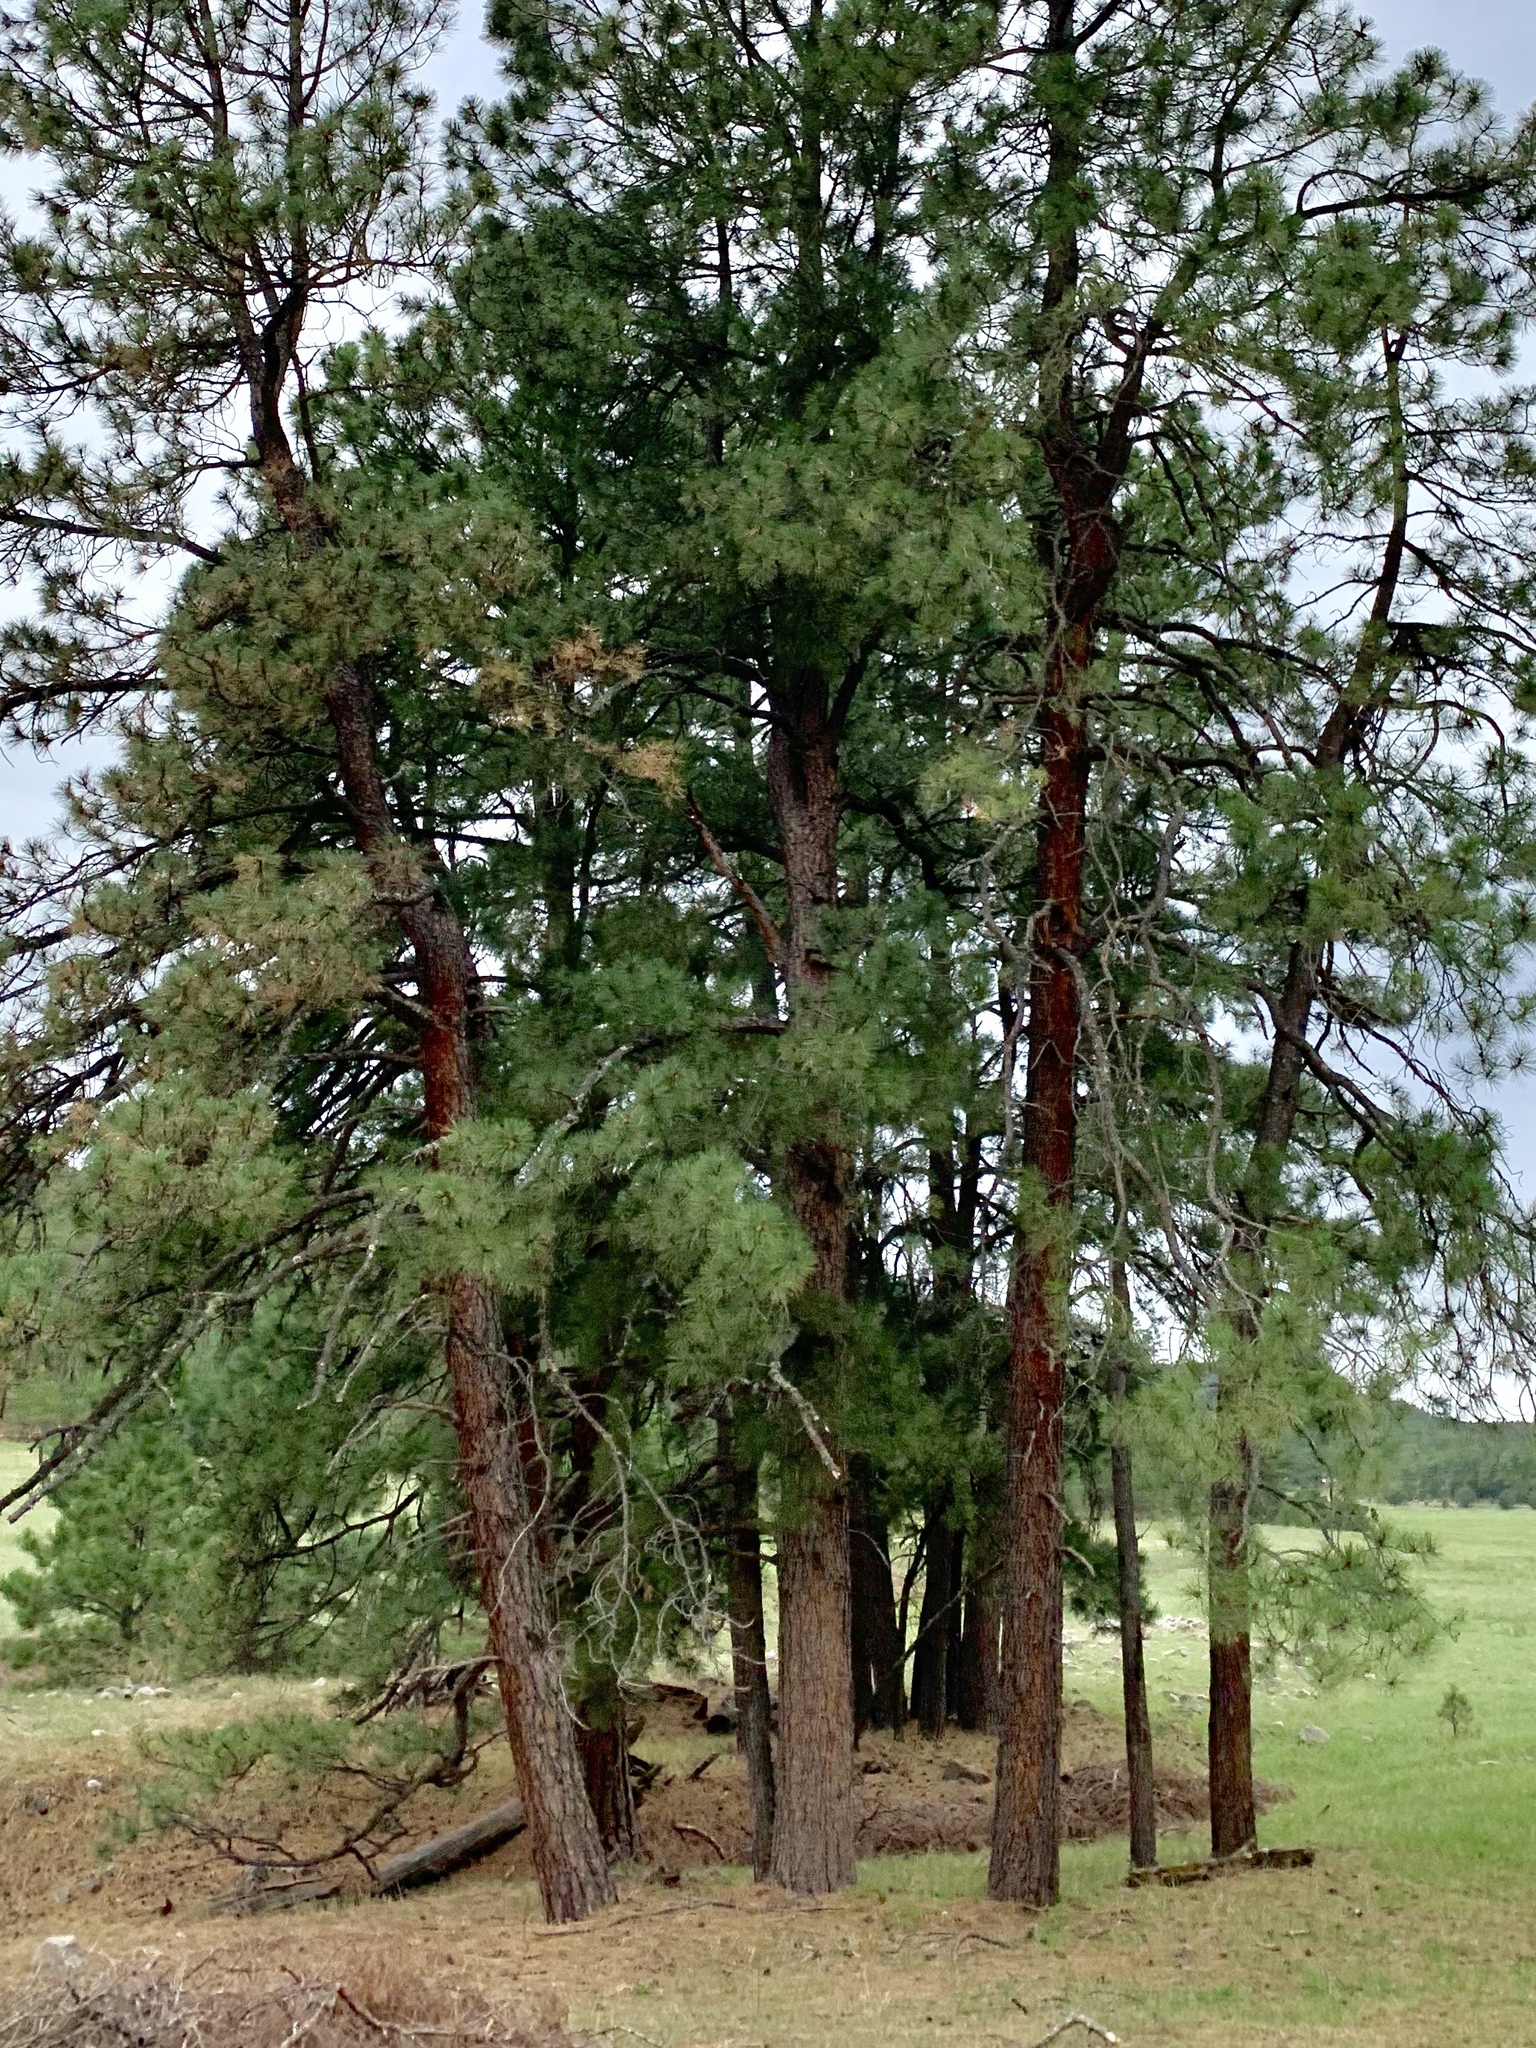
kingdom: Plantae
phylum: Tracheophyta
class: Pinopsida
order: Pinales
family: Pinaceae
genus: Pinus
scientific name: Pinus ponderosa
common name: Western yellow-pine
